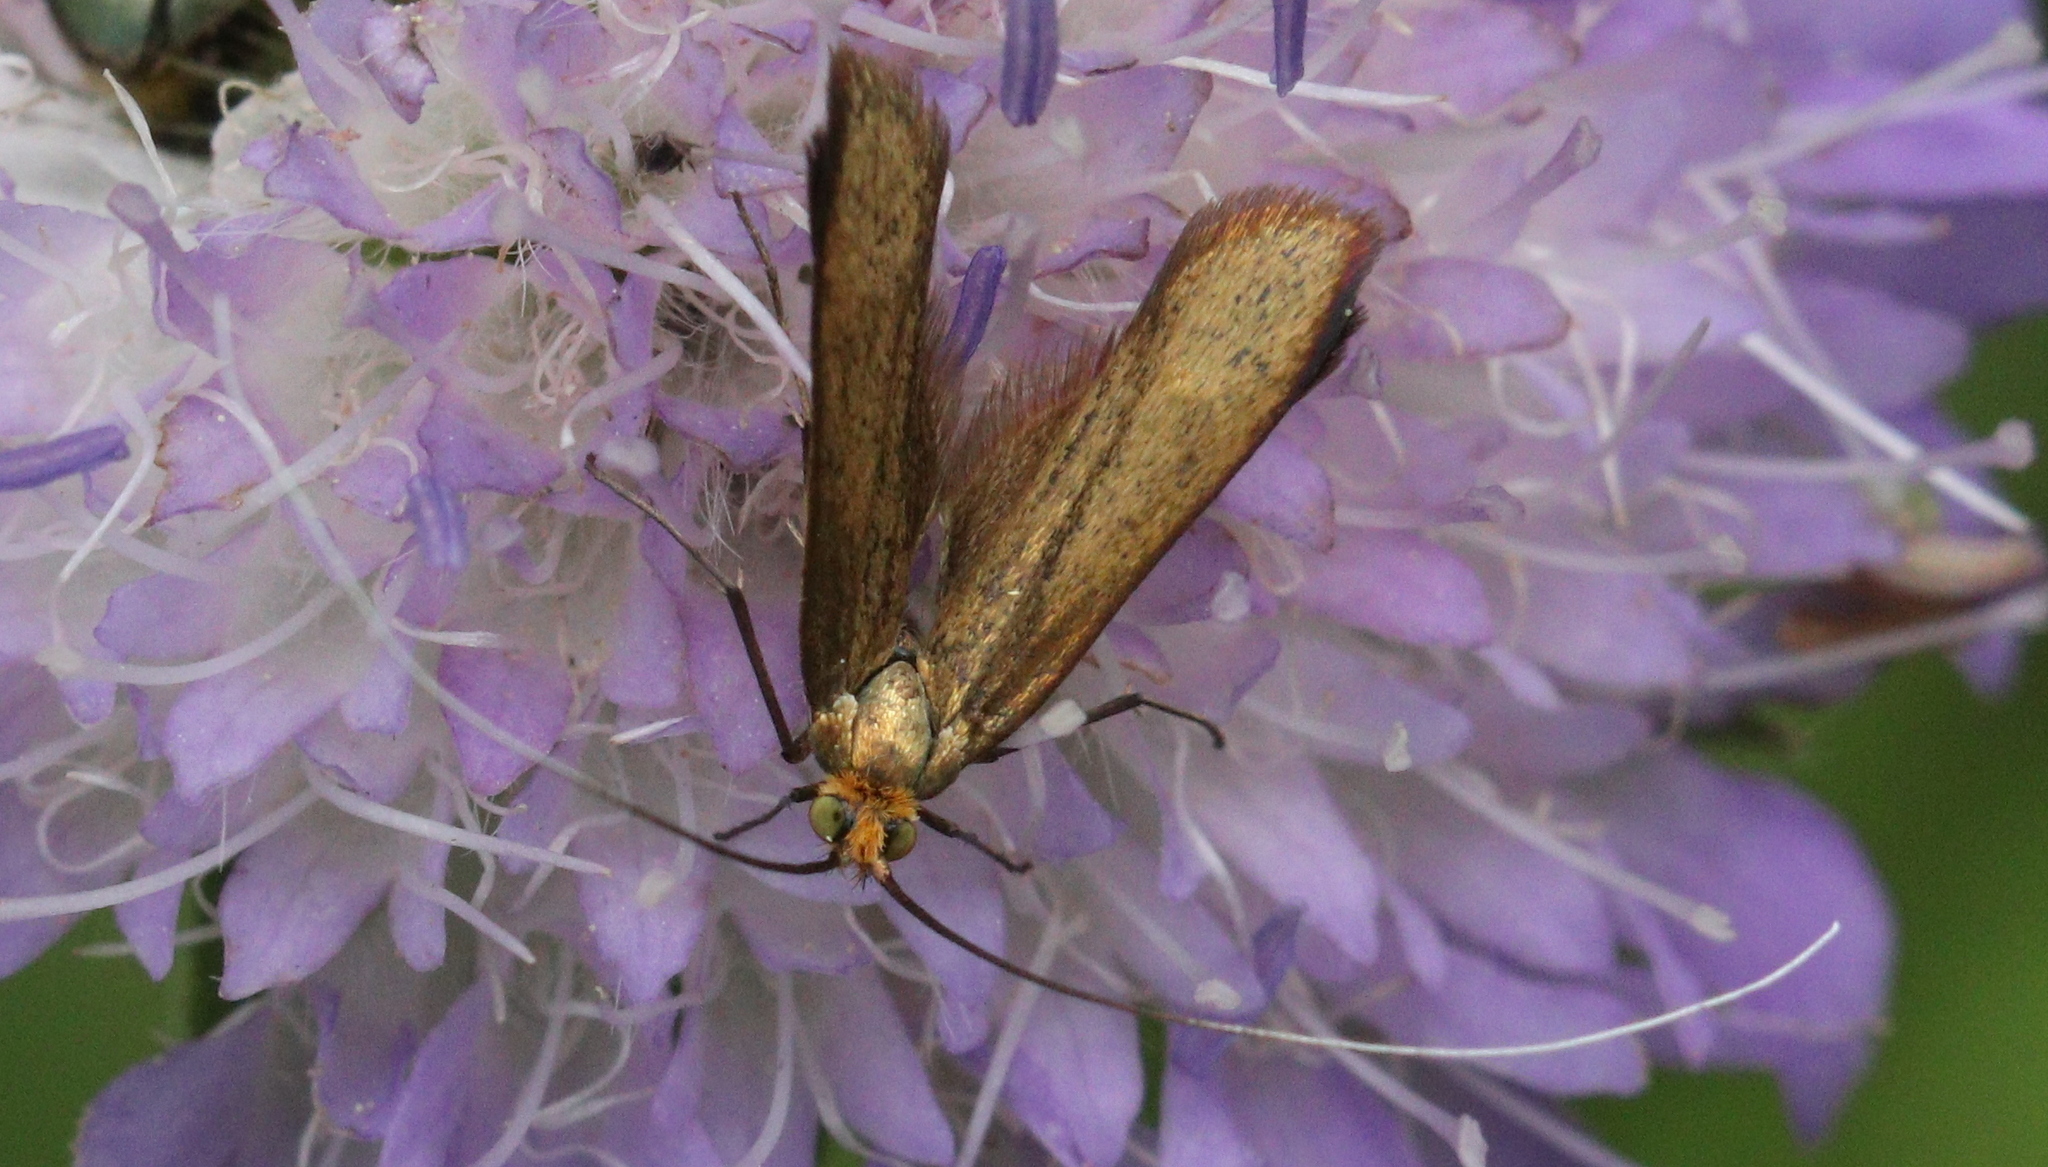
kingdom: Animalia
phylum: Arthropoda
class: Insecta
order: Lepidoptera
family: Adelidae
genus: Nemophora
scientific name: Nemophora metallica
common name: Brassy long-horn
